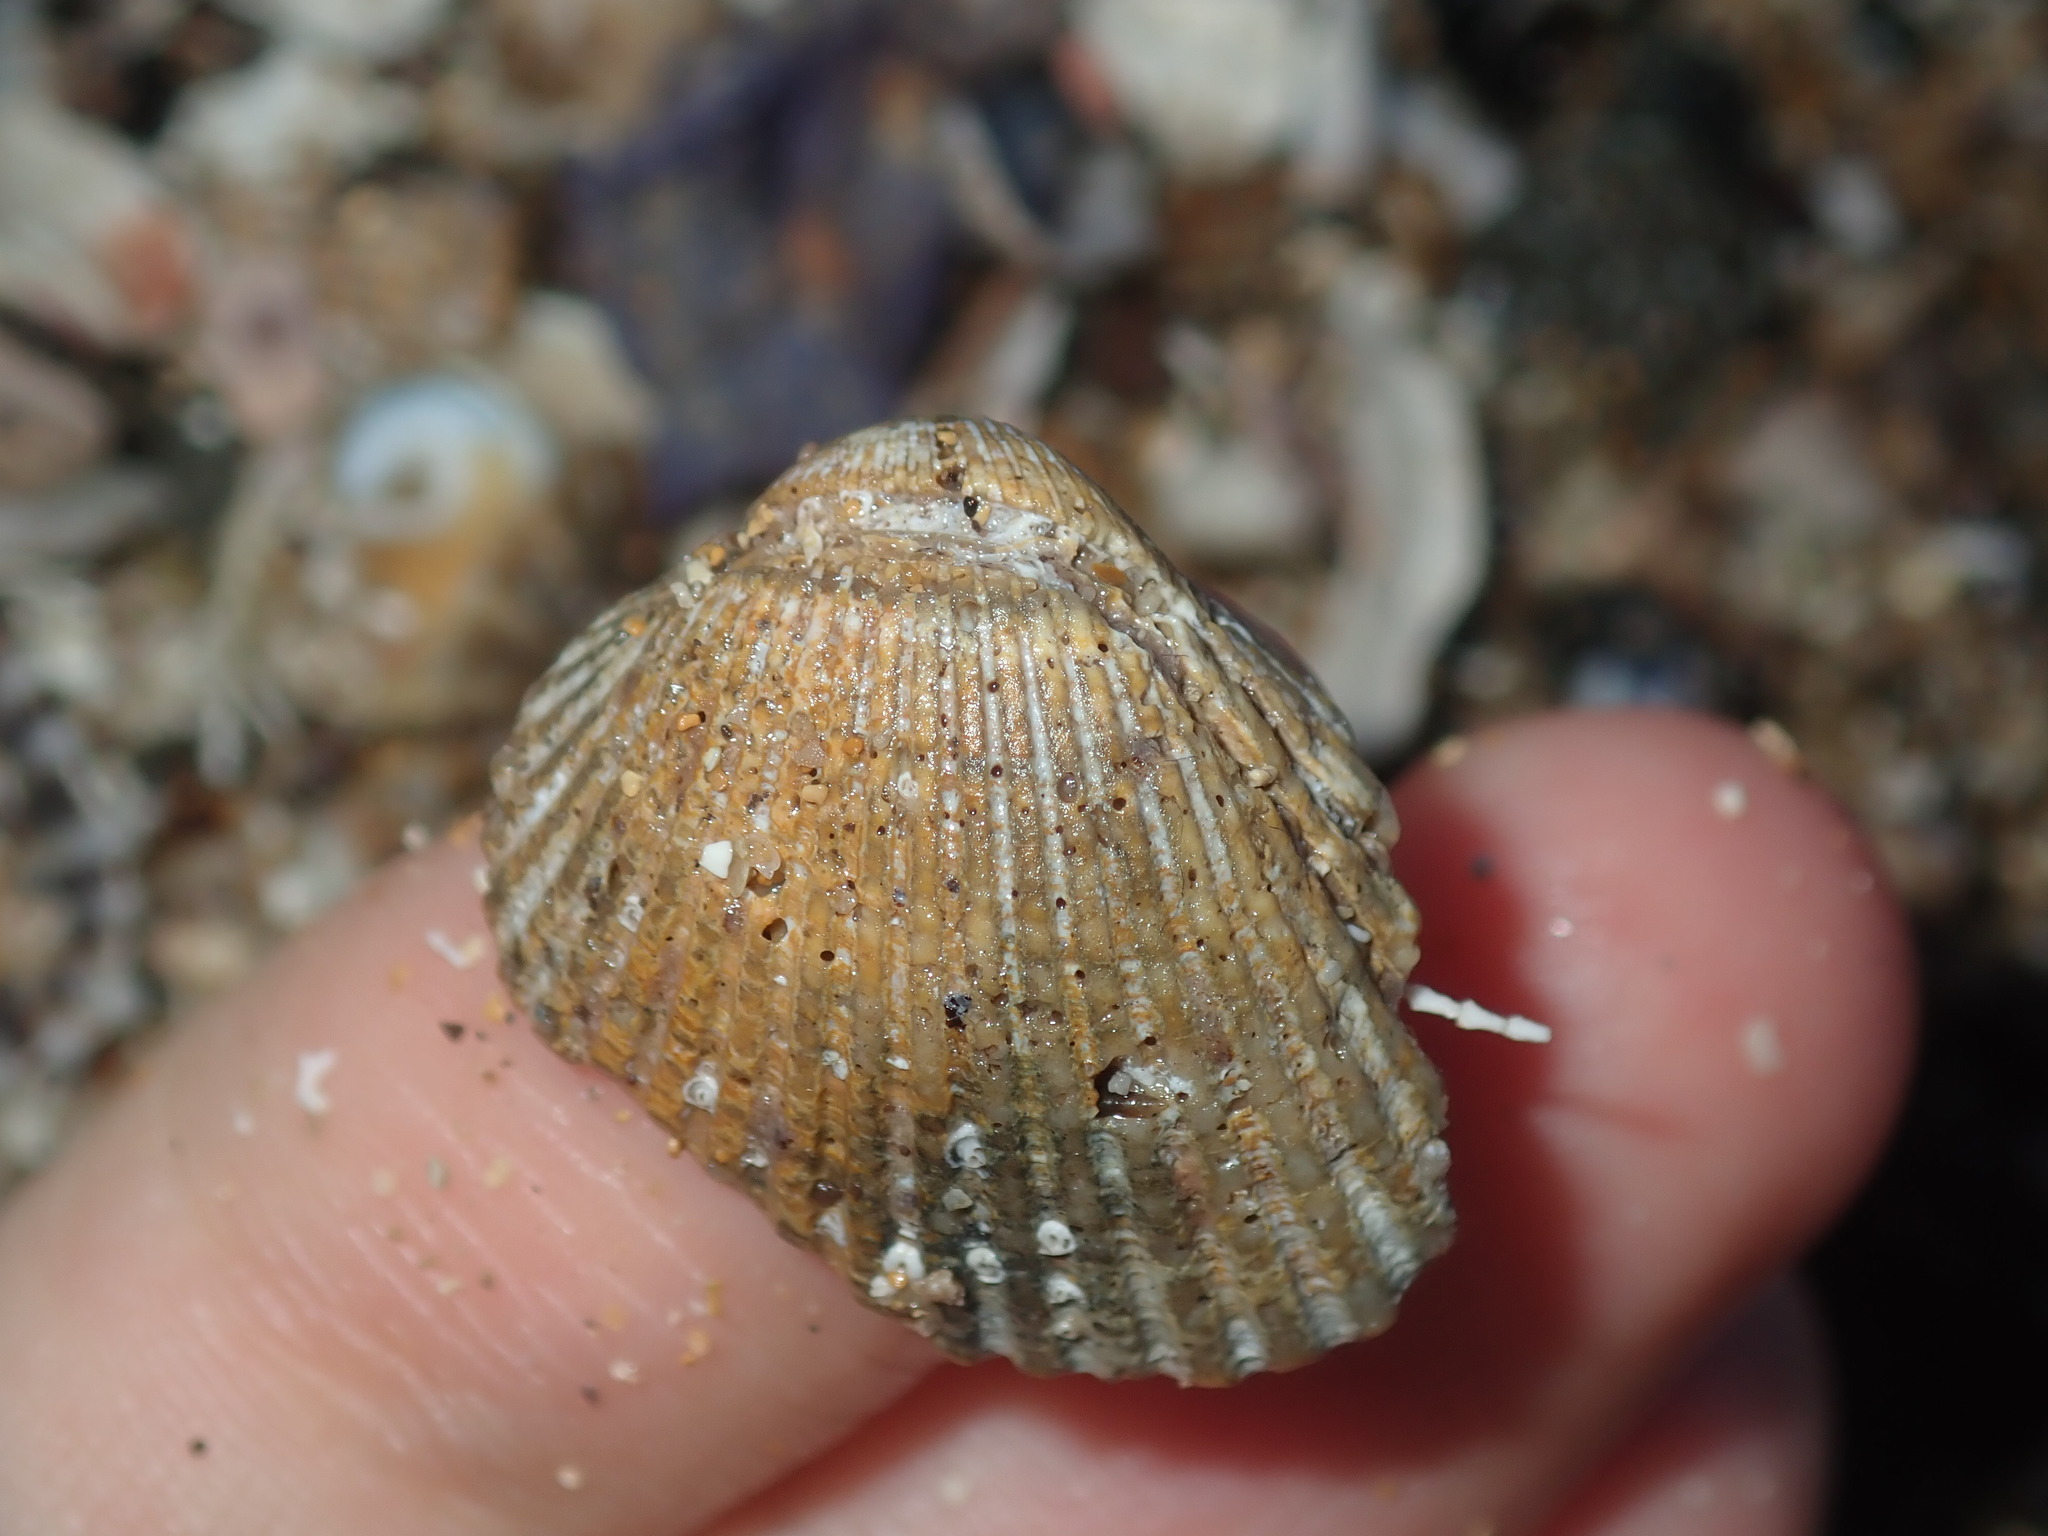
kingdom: Animalia
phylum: Mollusca
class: Bivalvia
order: Arcida
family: Arcidae
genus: Anadara
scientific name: Anadara trapezia
